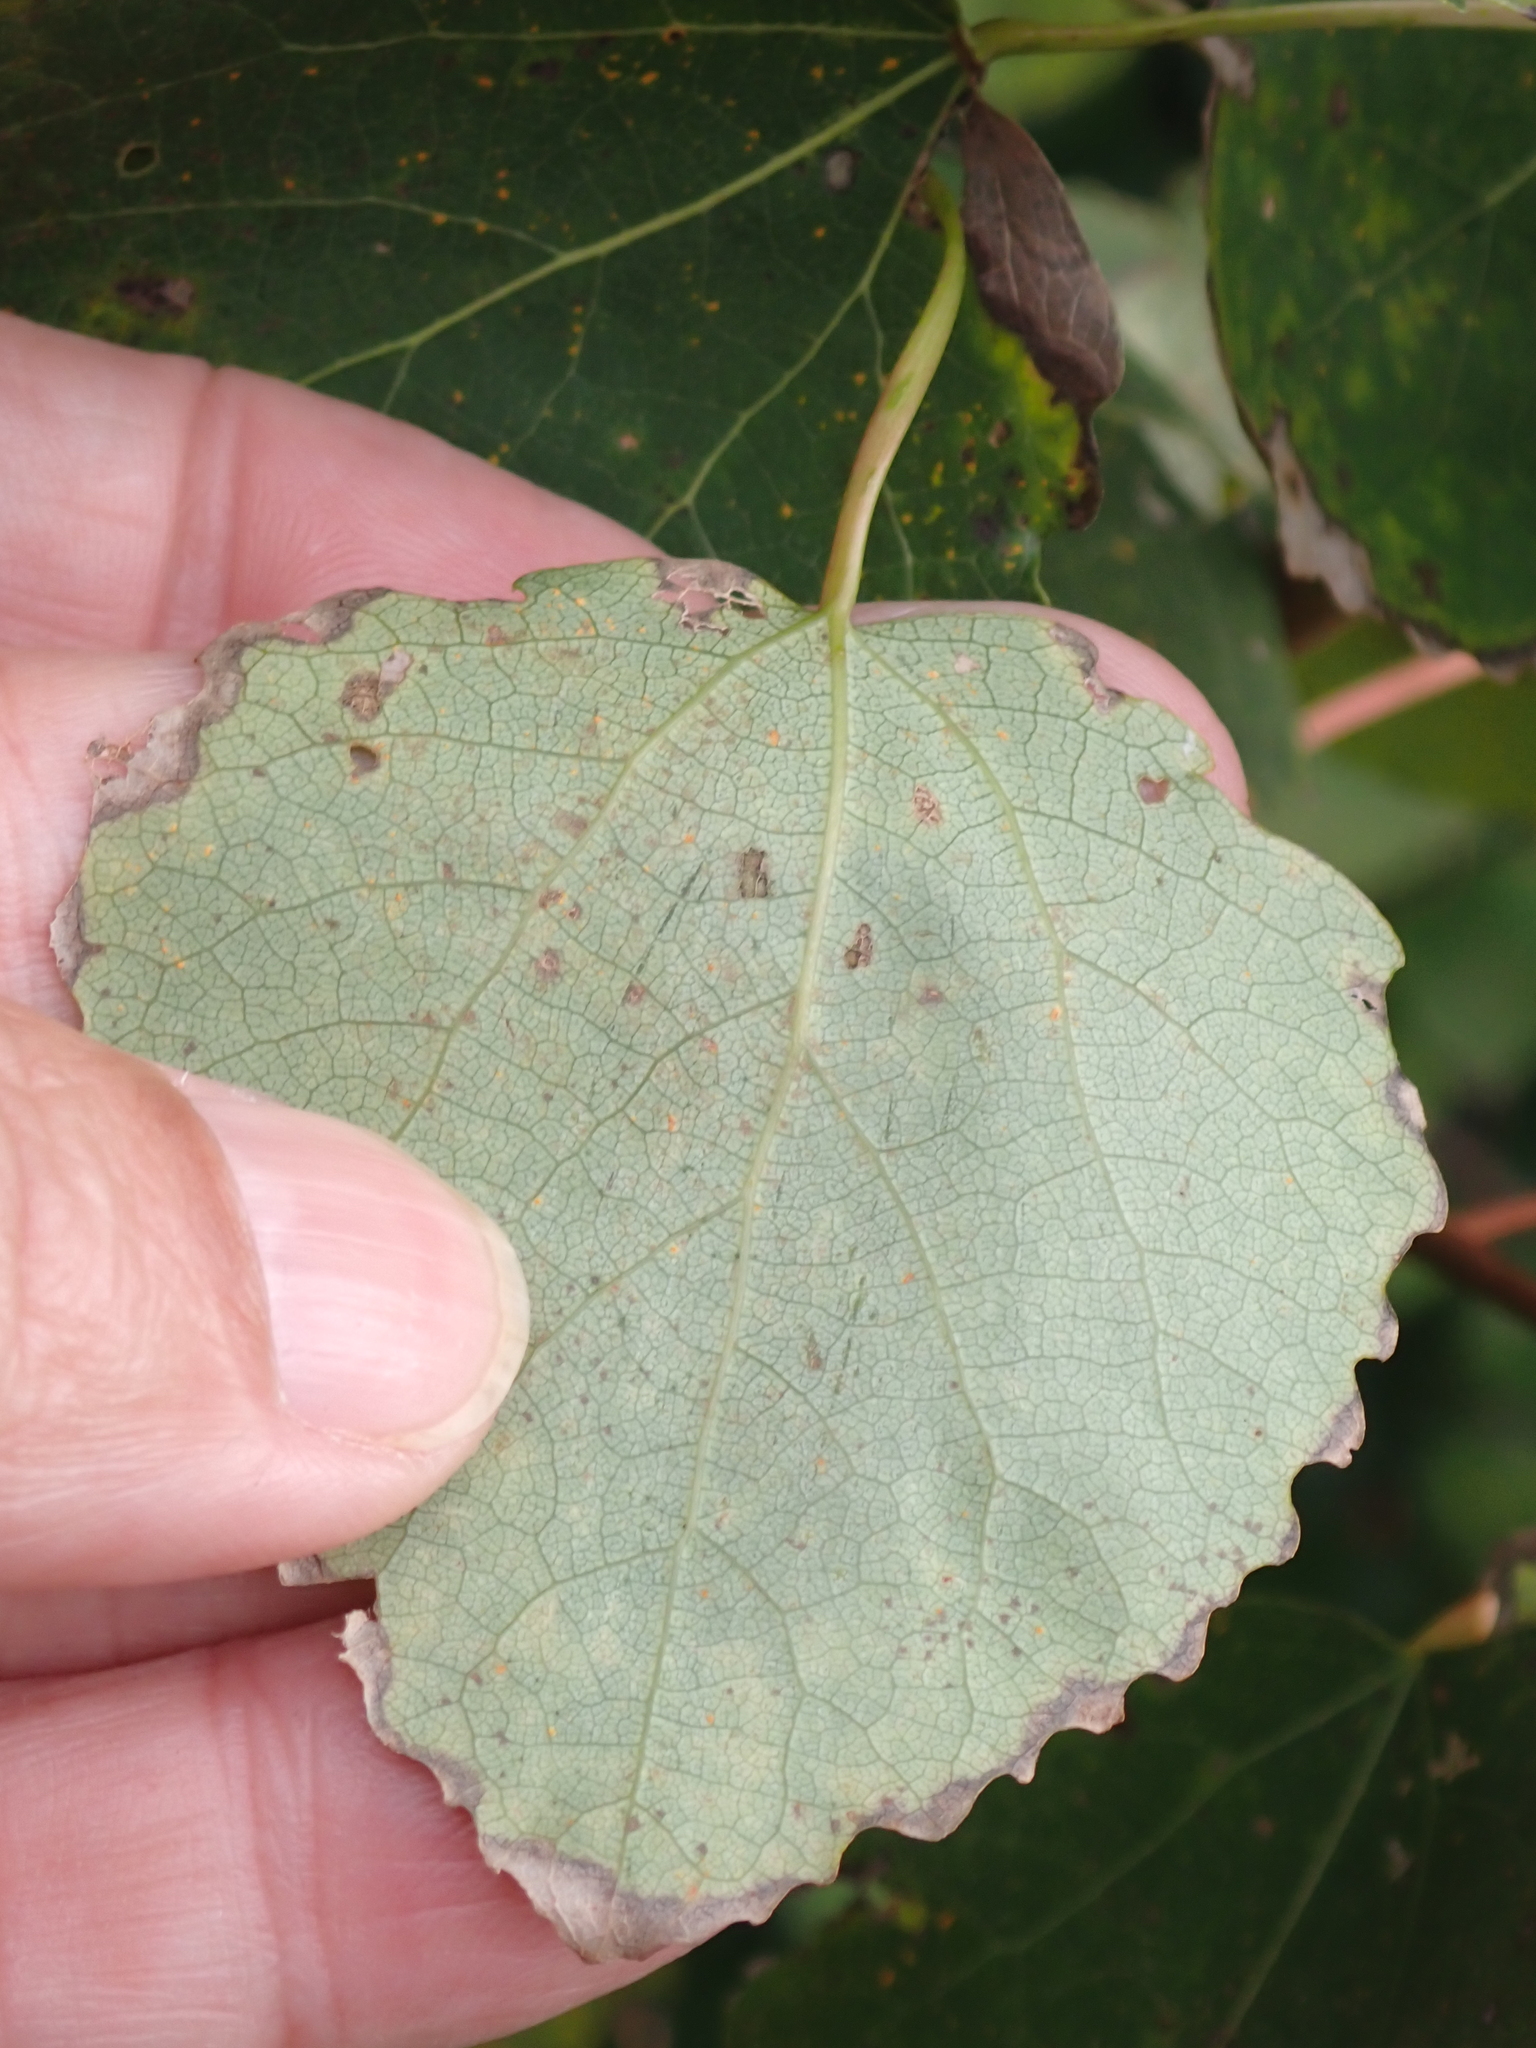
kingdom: Plantae
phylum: Tracheophyta
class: Magnoliopsida
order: Malpighiales
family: Salicaceae
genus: Populus
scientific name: Populus tremula
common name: European aspen
